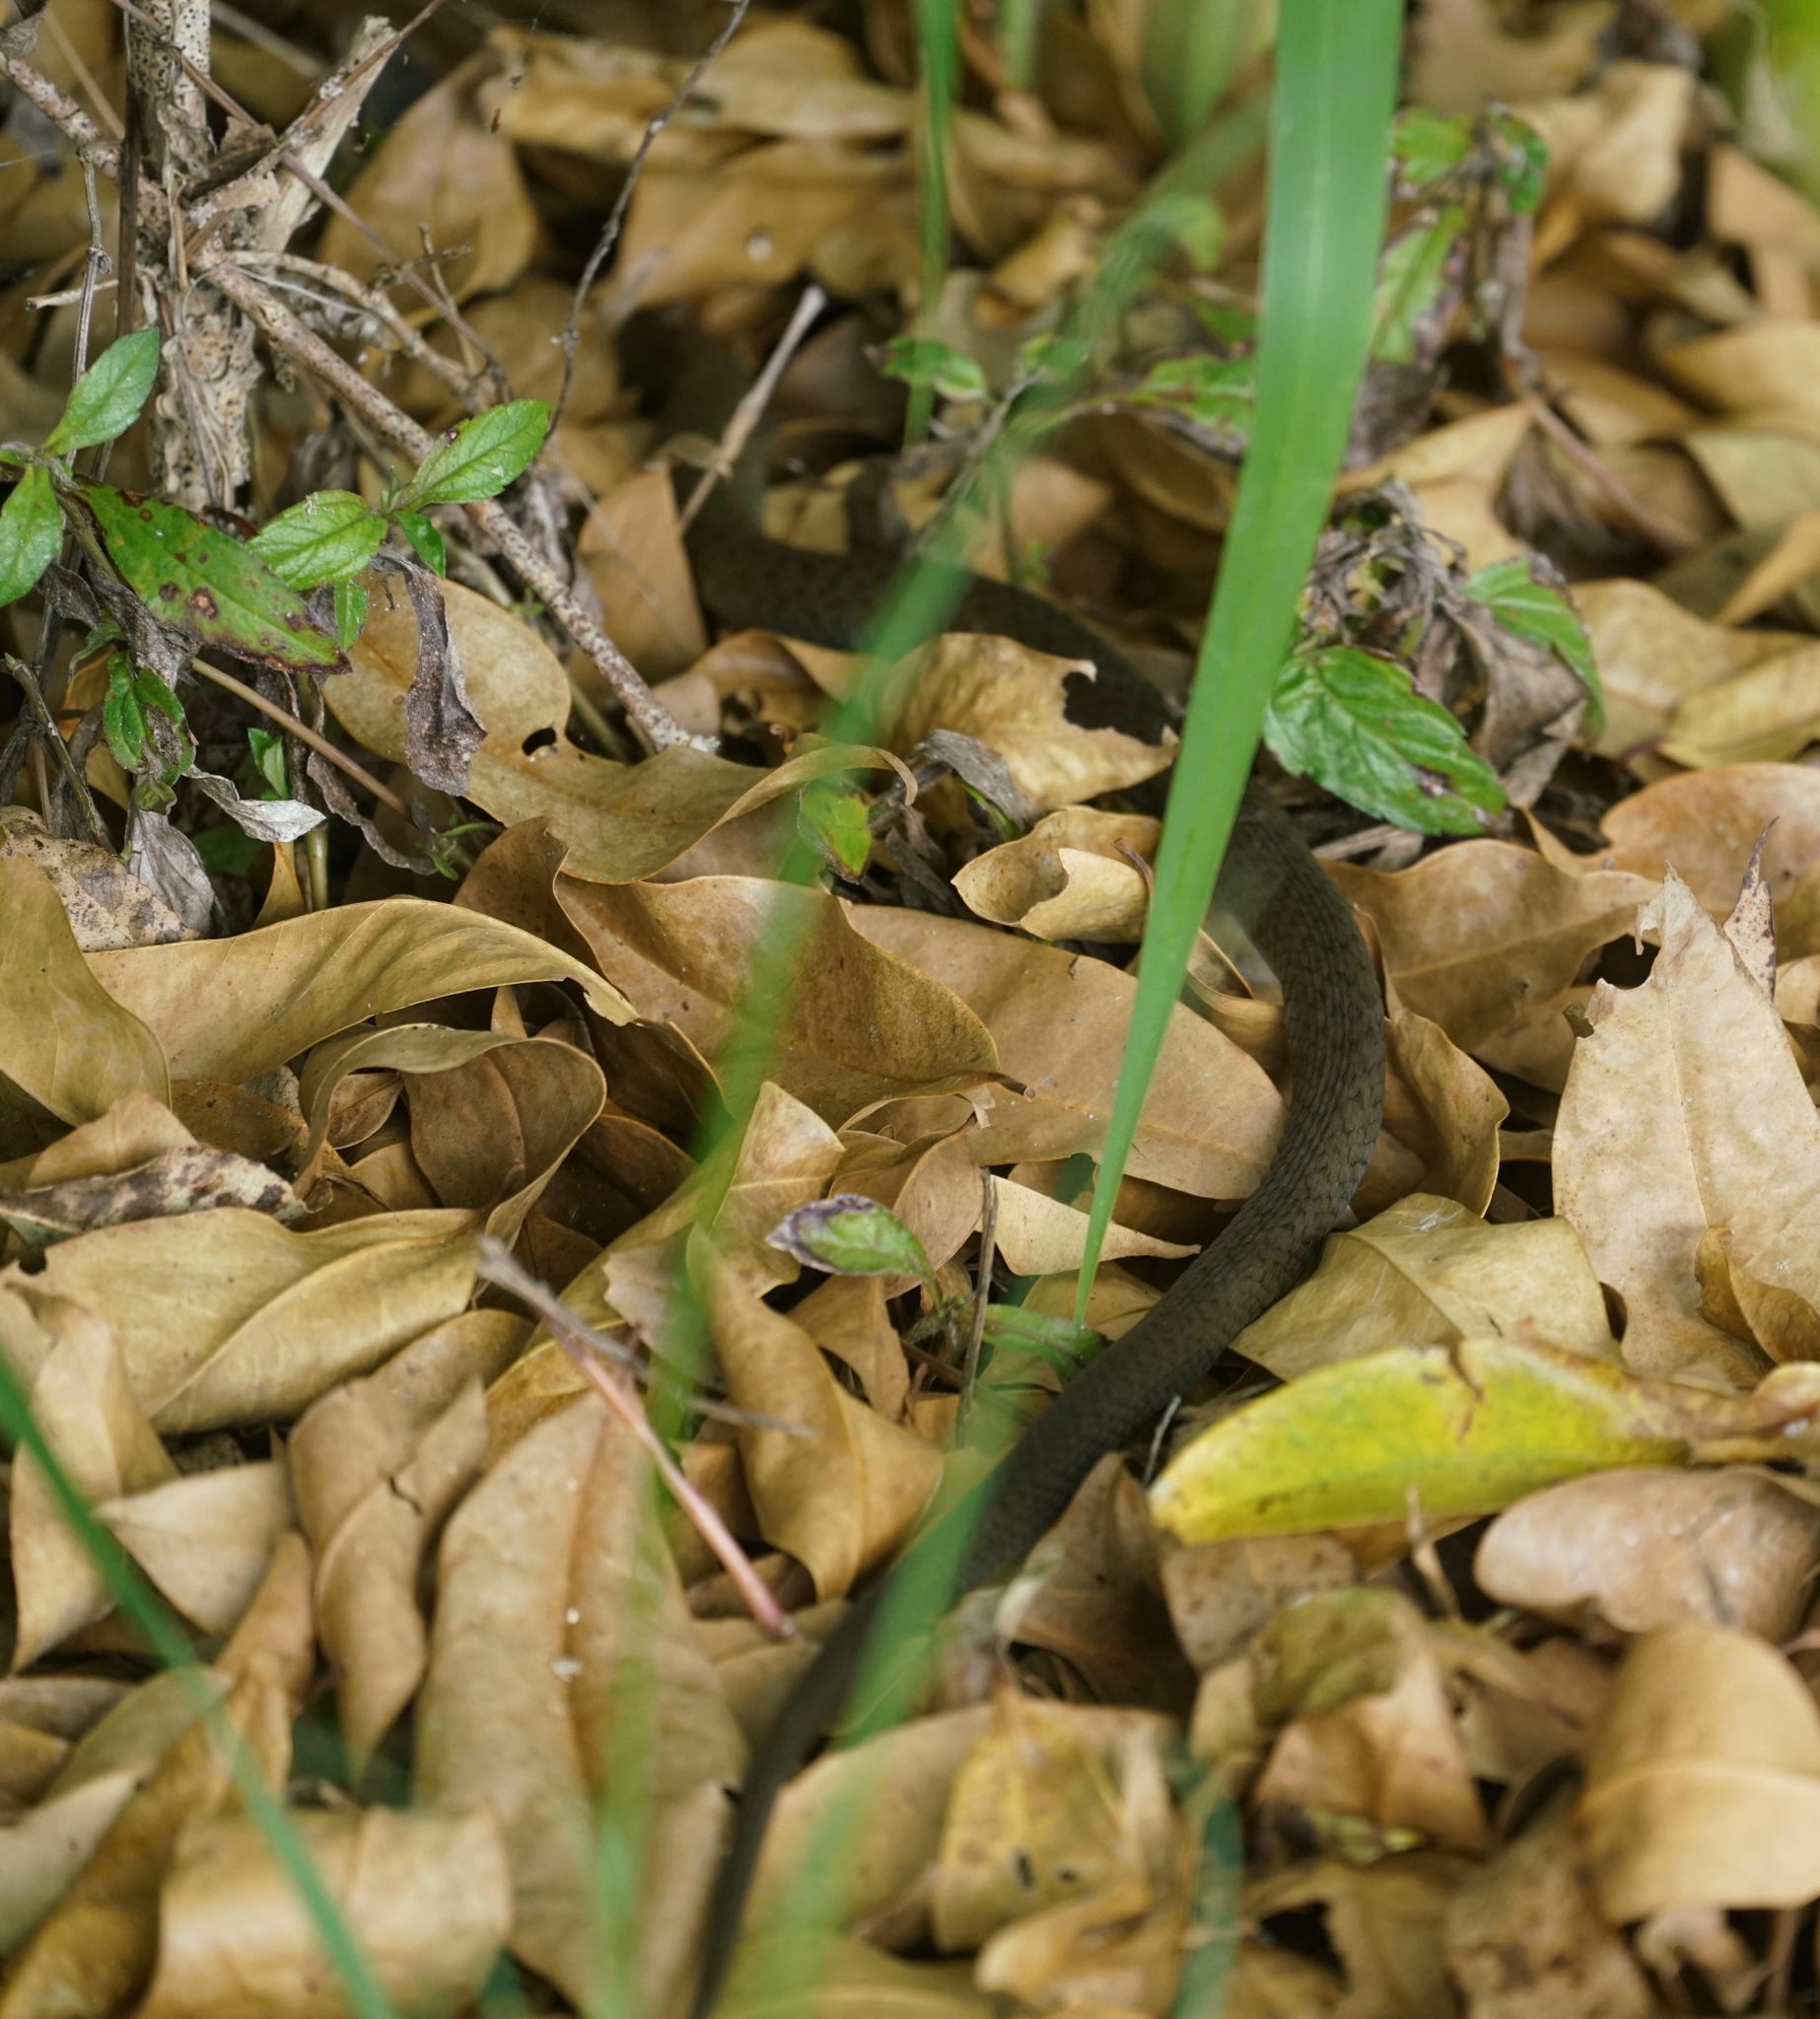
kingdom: Animalia
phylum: Chordata
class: Squamata
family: Colubridae
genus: Tropidonophis
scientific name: Tropidonophis mairii
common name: Common keelback
